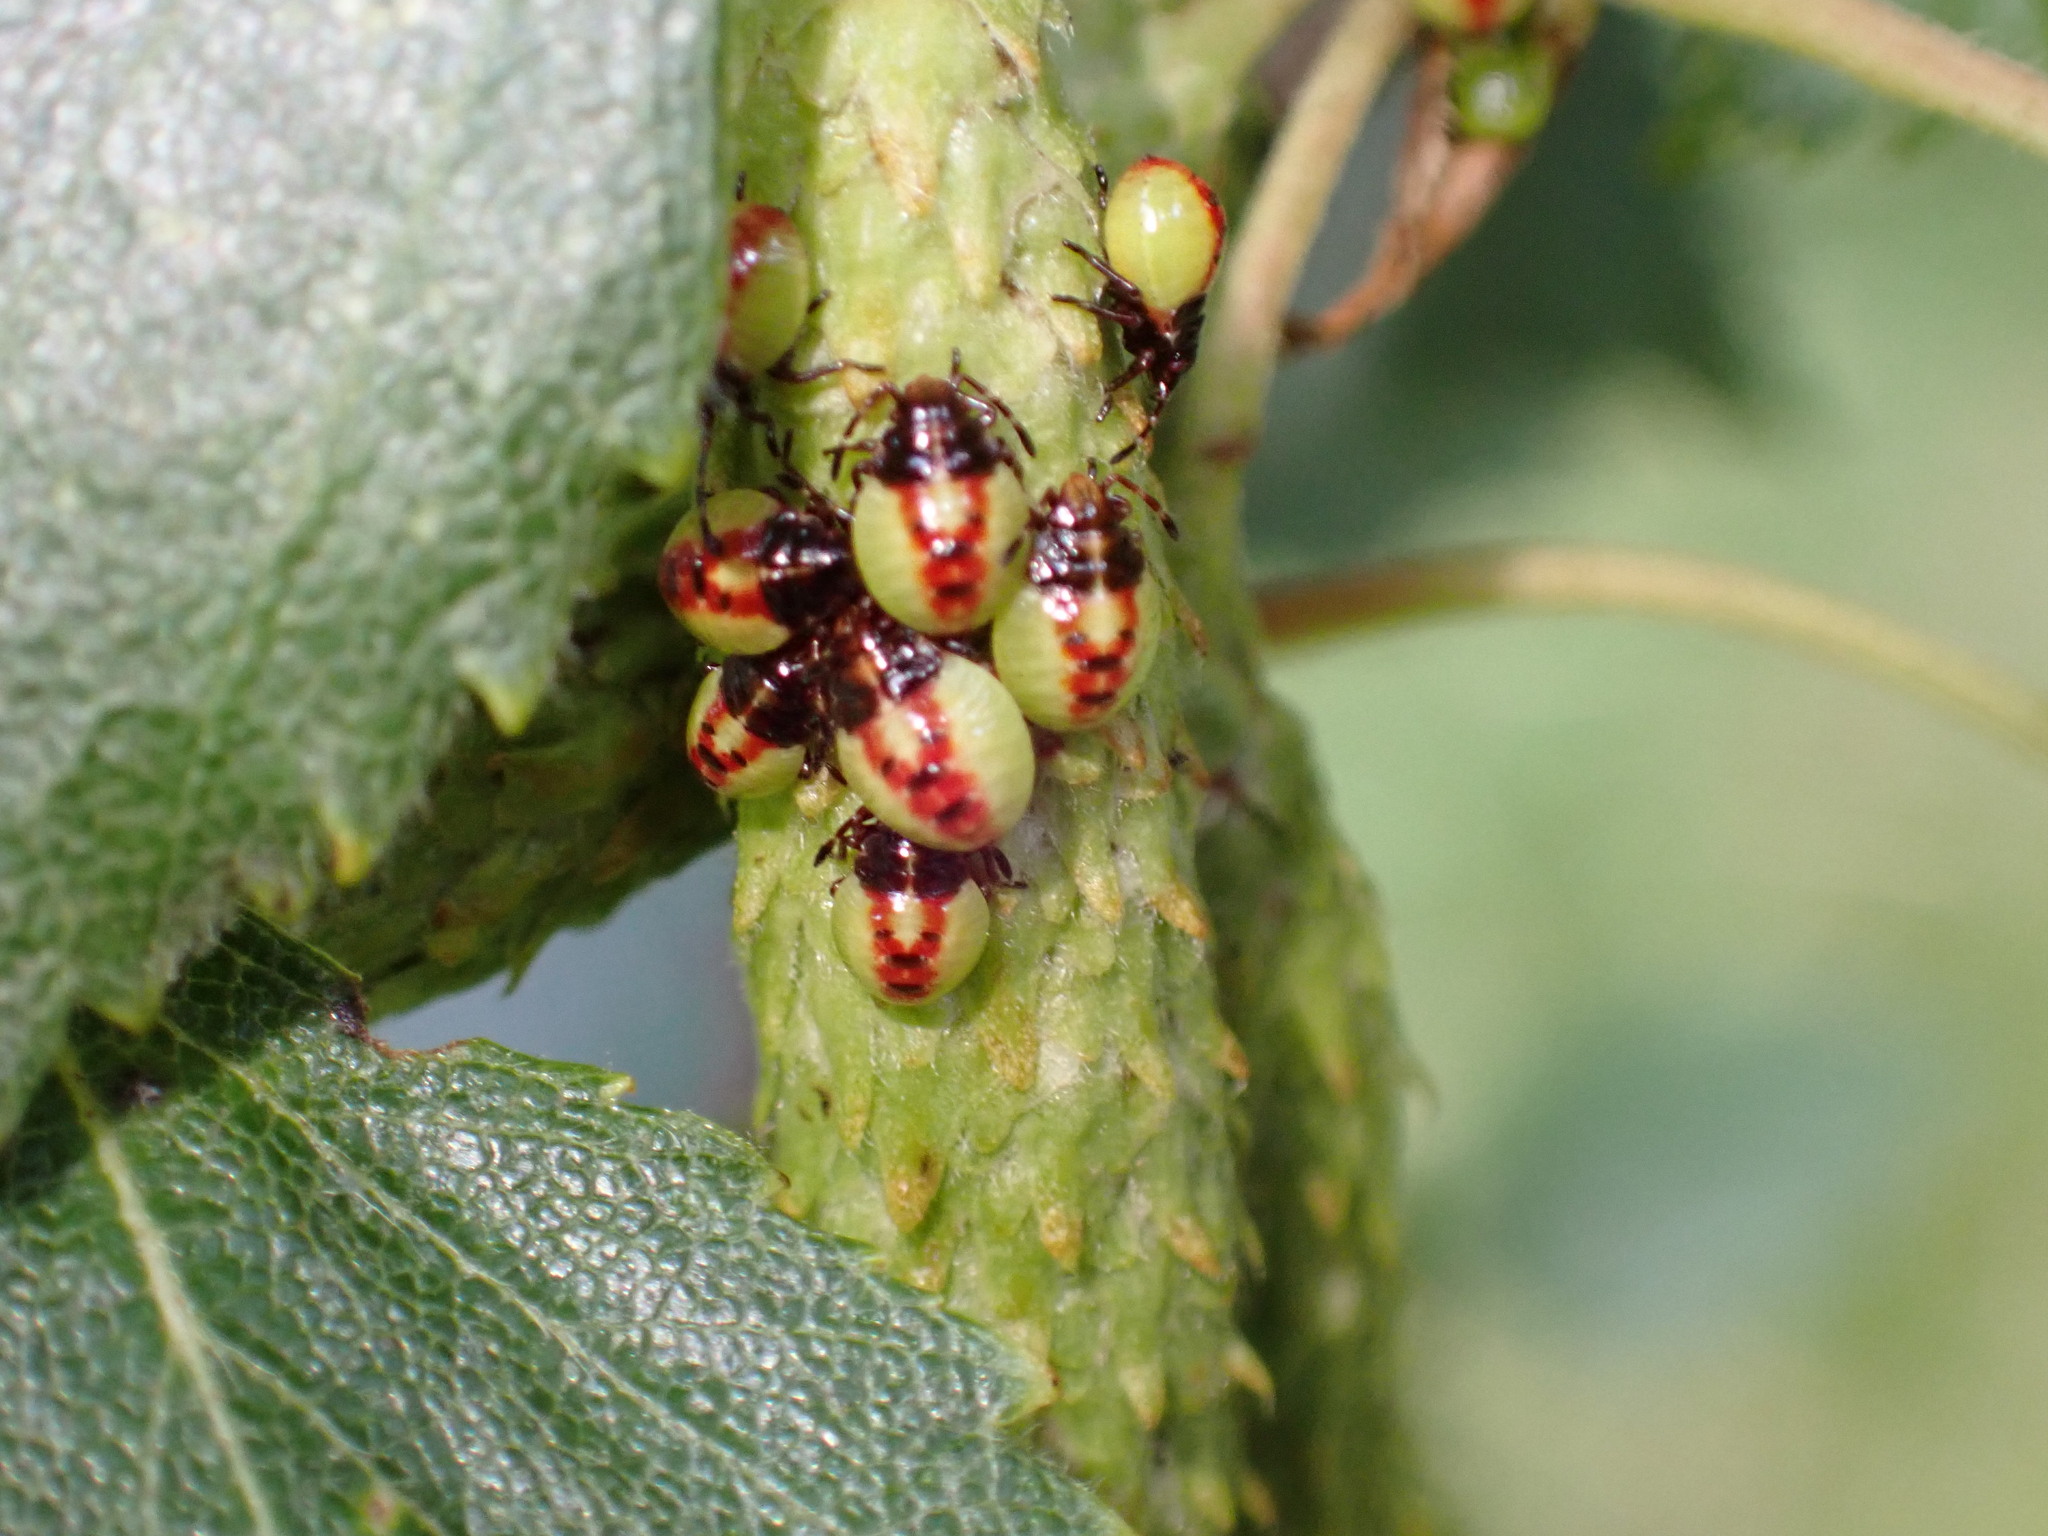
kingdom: Animalia
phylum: Arthropoda
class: Insecta
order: Hemiptera
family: Acanthosomatidae
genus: Elasmostethus
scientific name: Elasmostethus interstinctus
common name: Birch shieldbug
